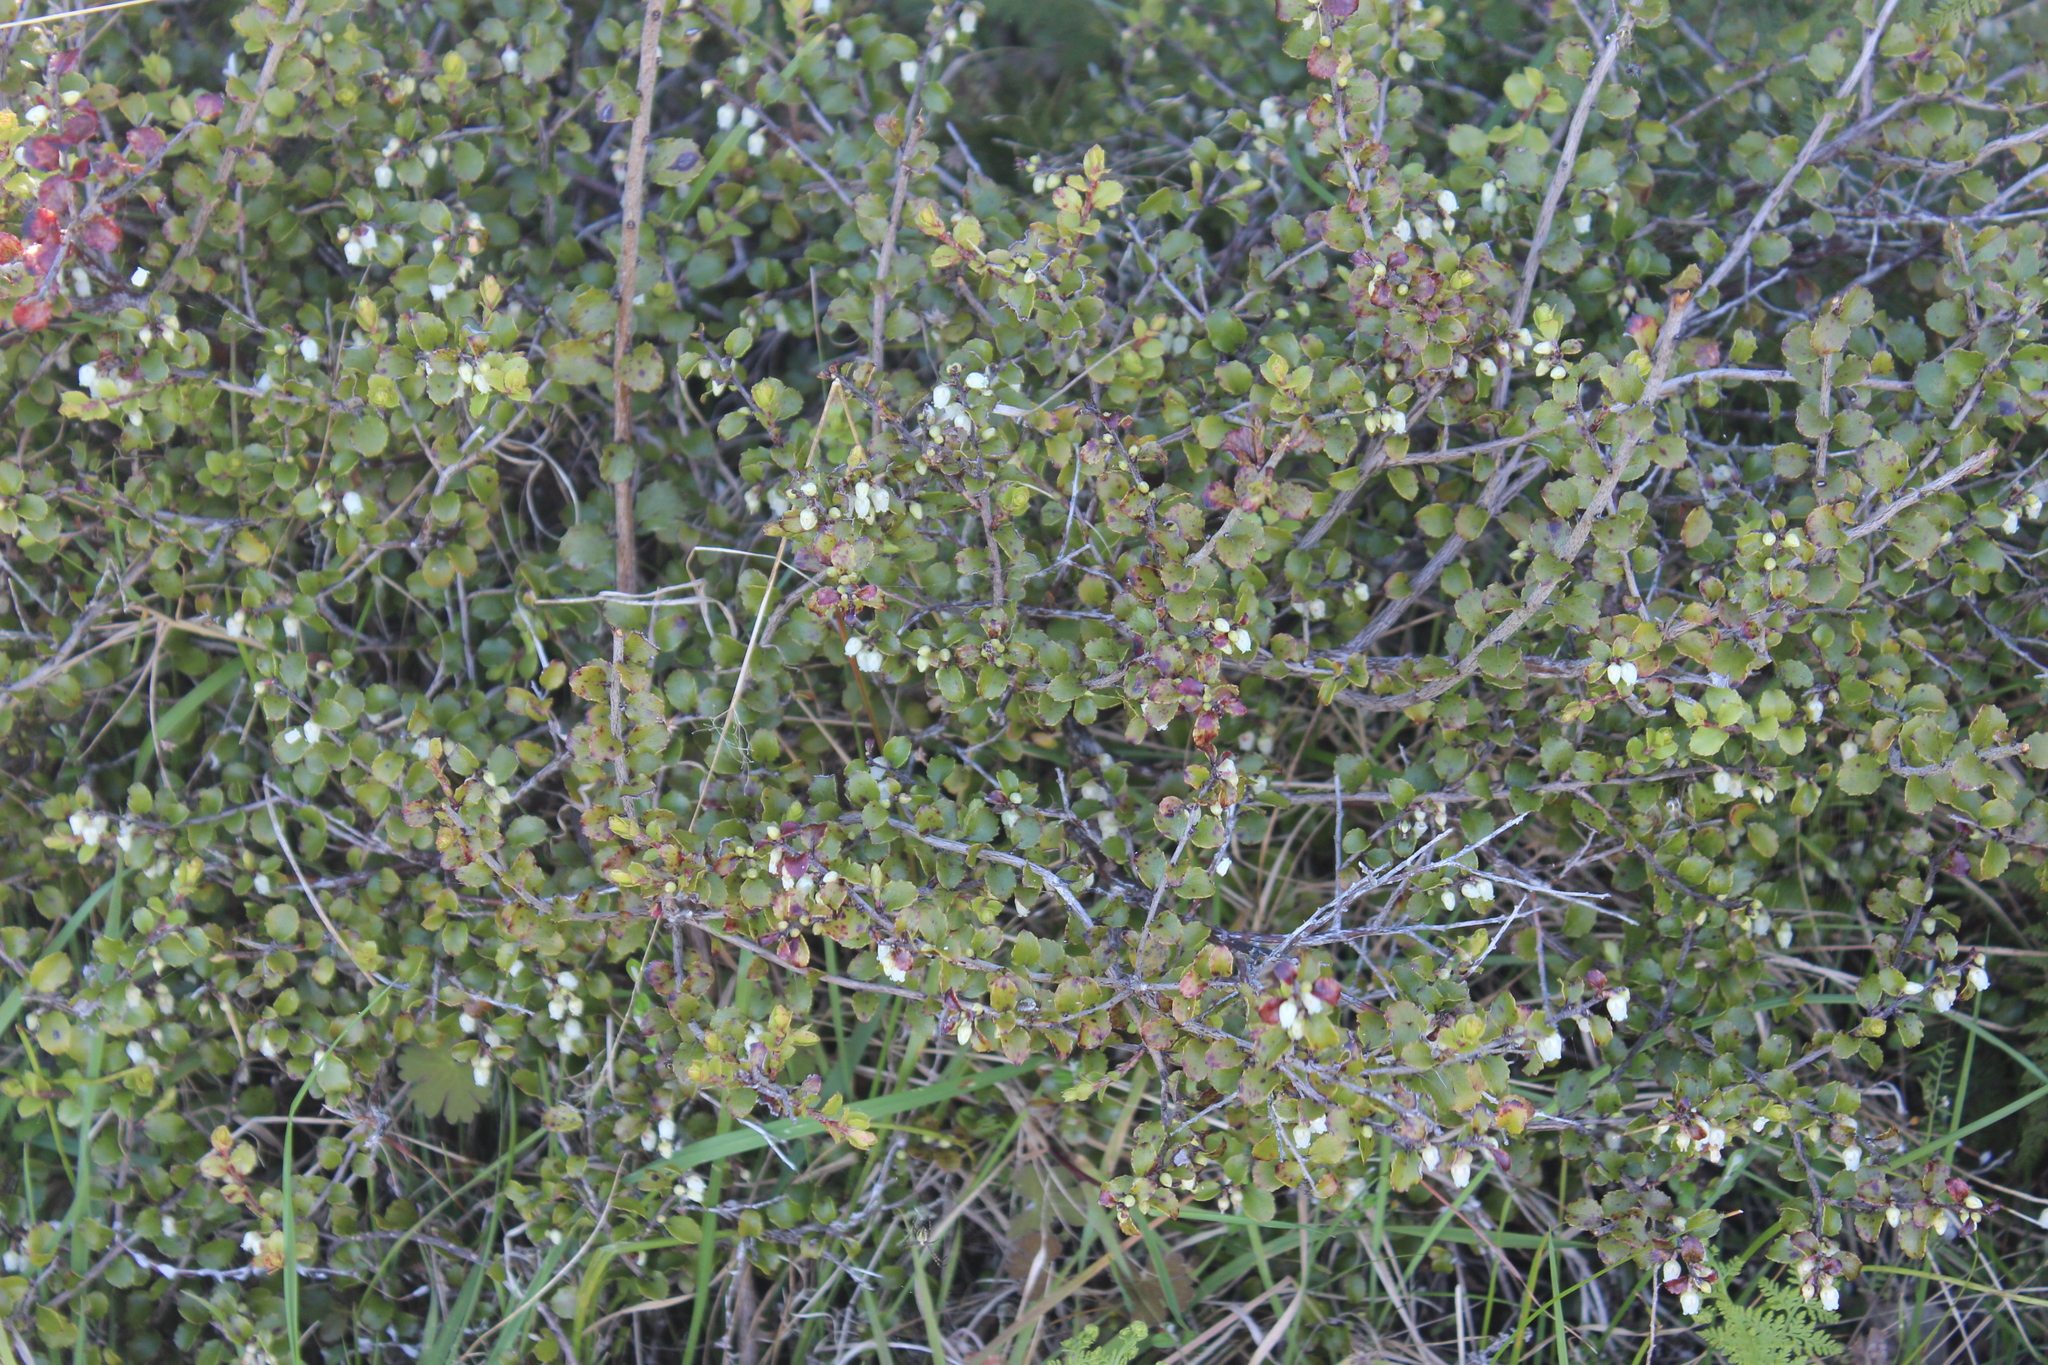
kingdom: Plantae
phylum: Tracheophyta
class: Magnoliopsida
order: Ericales
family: Ericaceae
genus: Gaultheria
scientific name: Gaultheria antipoda
